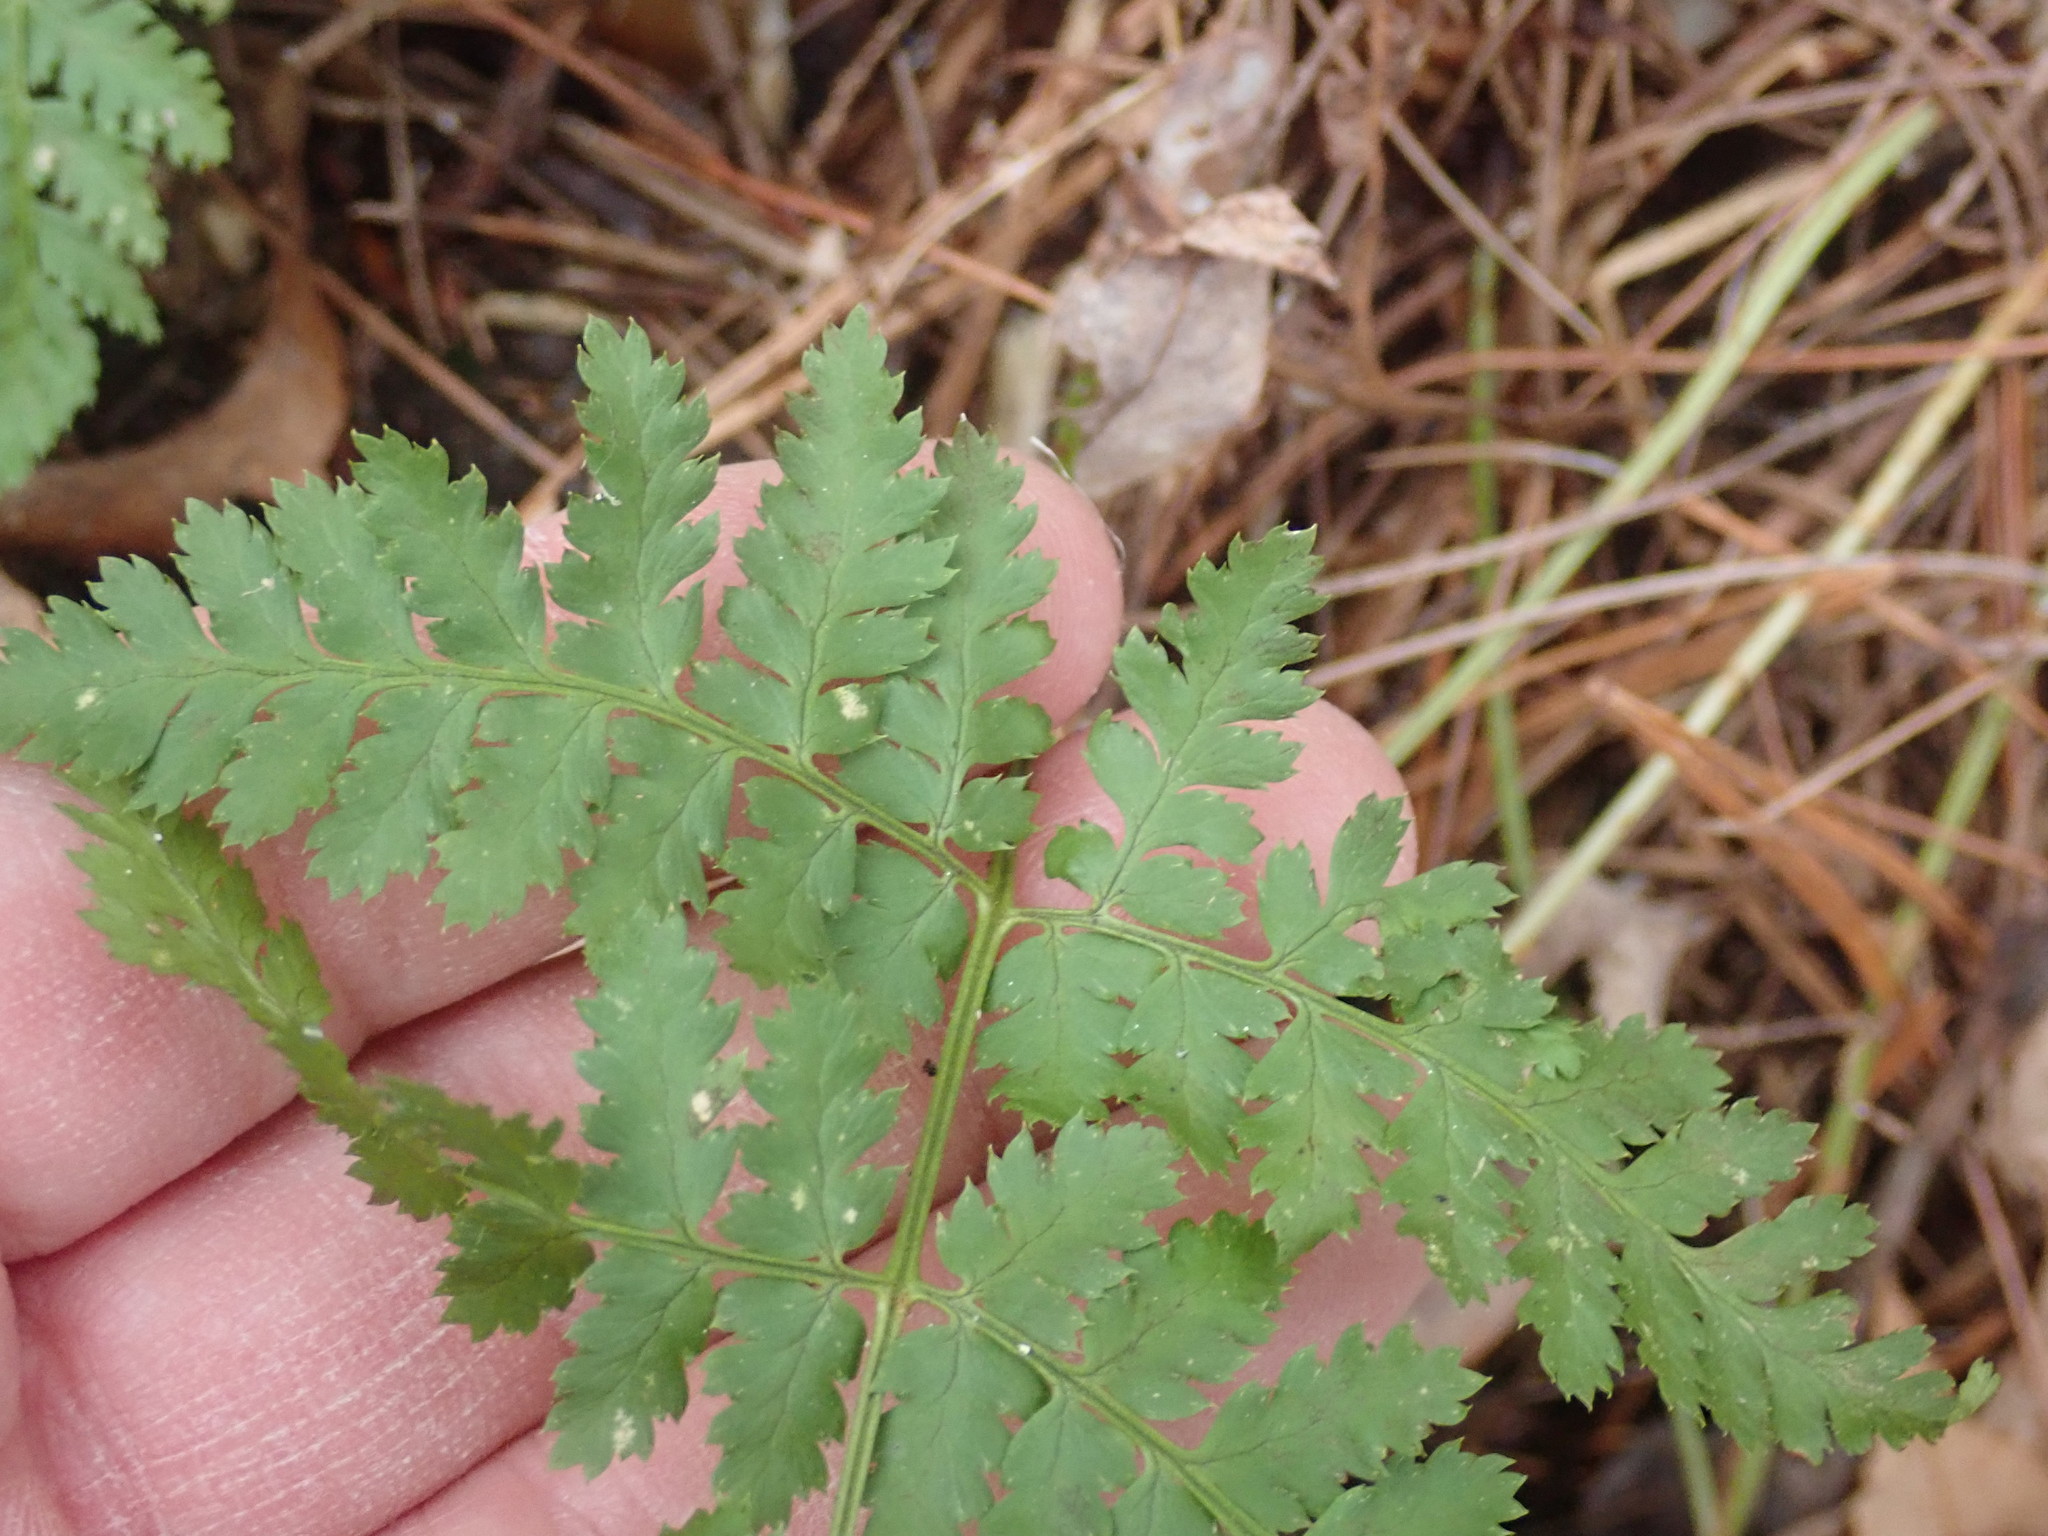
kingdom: Plantae
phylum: Tracheophyta
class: Polypodiopsida
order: Polypodiales
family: Dryopteridaceae
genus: Dryopteris
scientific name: Dryopteris intermedia
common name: Evergreen wood fern
